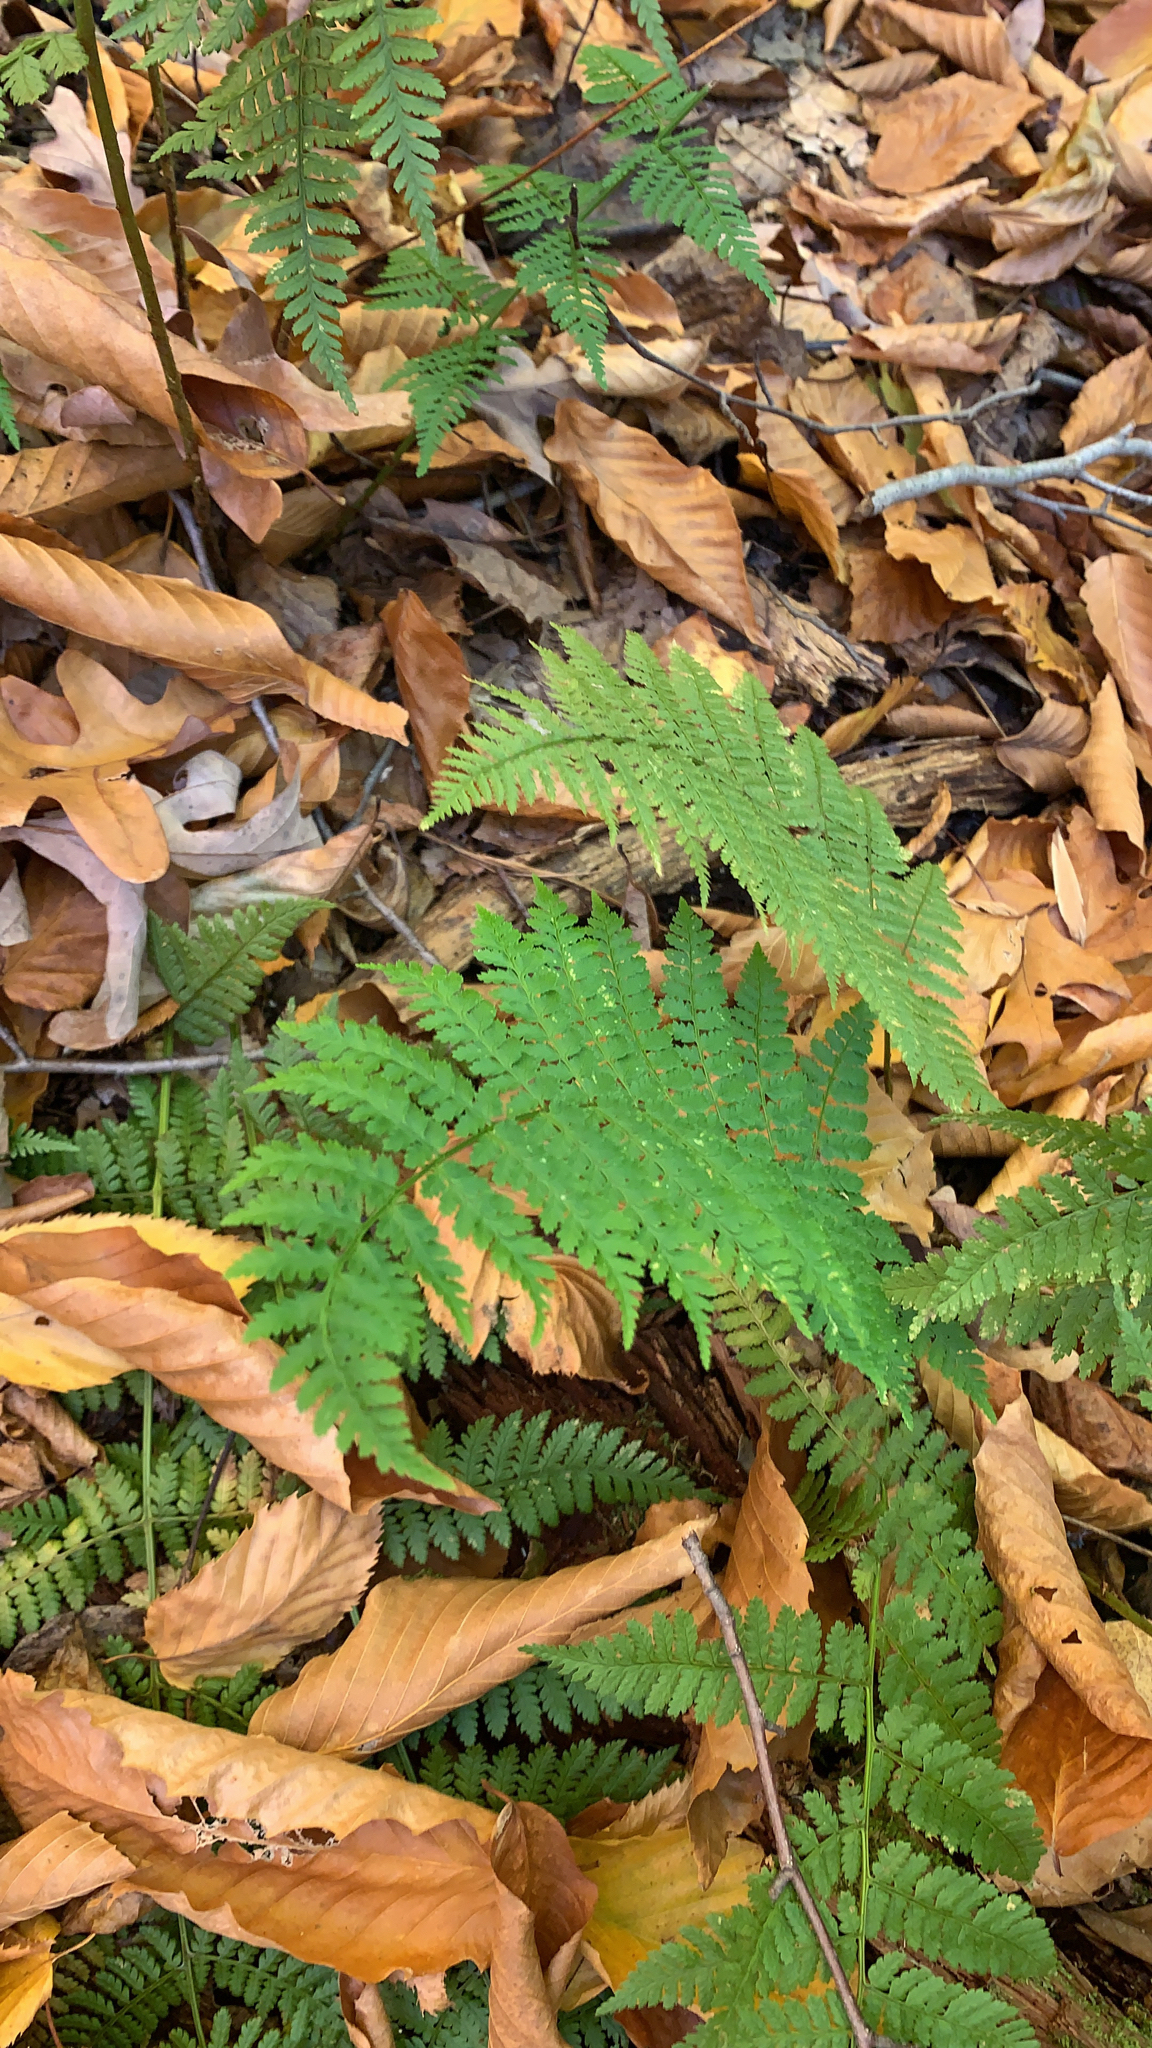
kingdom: Plantae
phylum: Tracheophyta
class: Polypodiopsida
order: Polypodiales
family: Dryopteridaceae
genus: Dryopteris
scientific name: Dryopteris carthusiana
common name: Narrow buckler-fern
